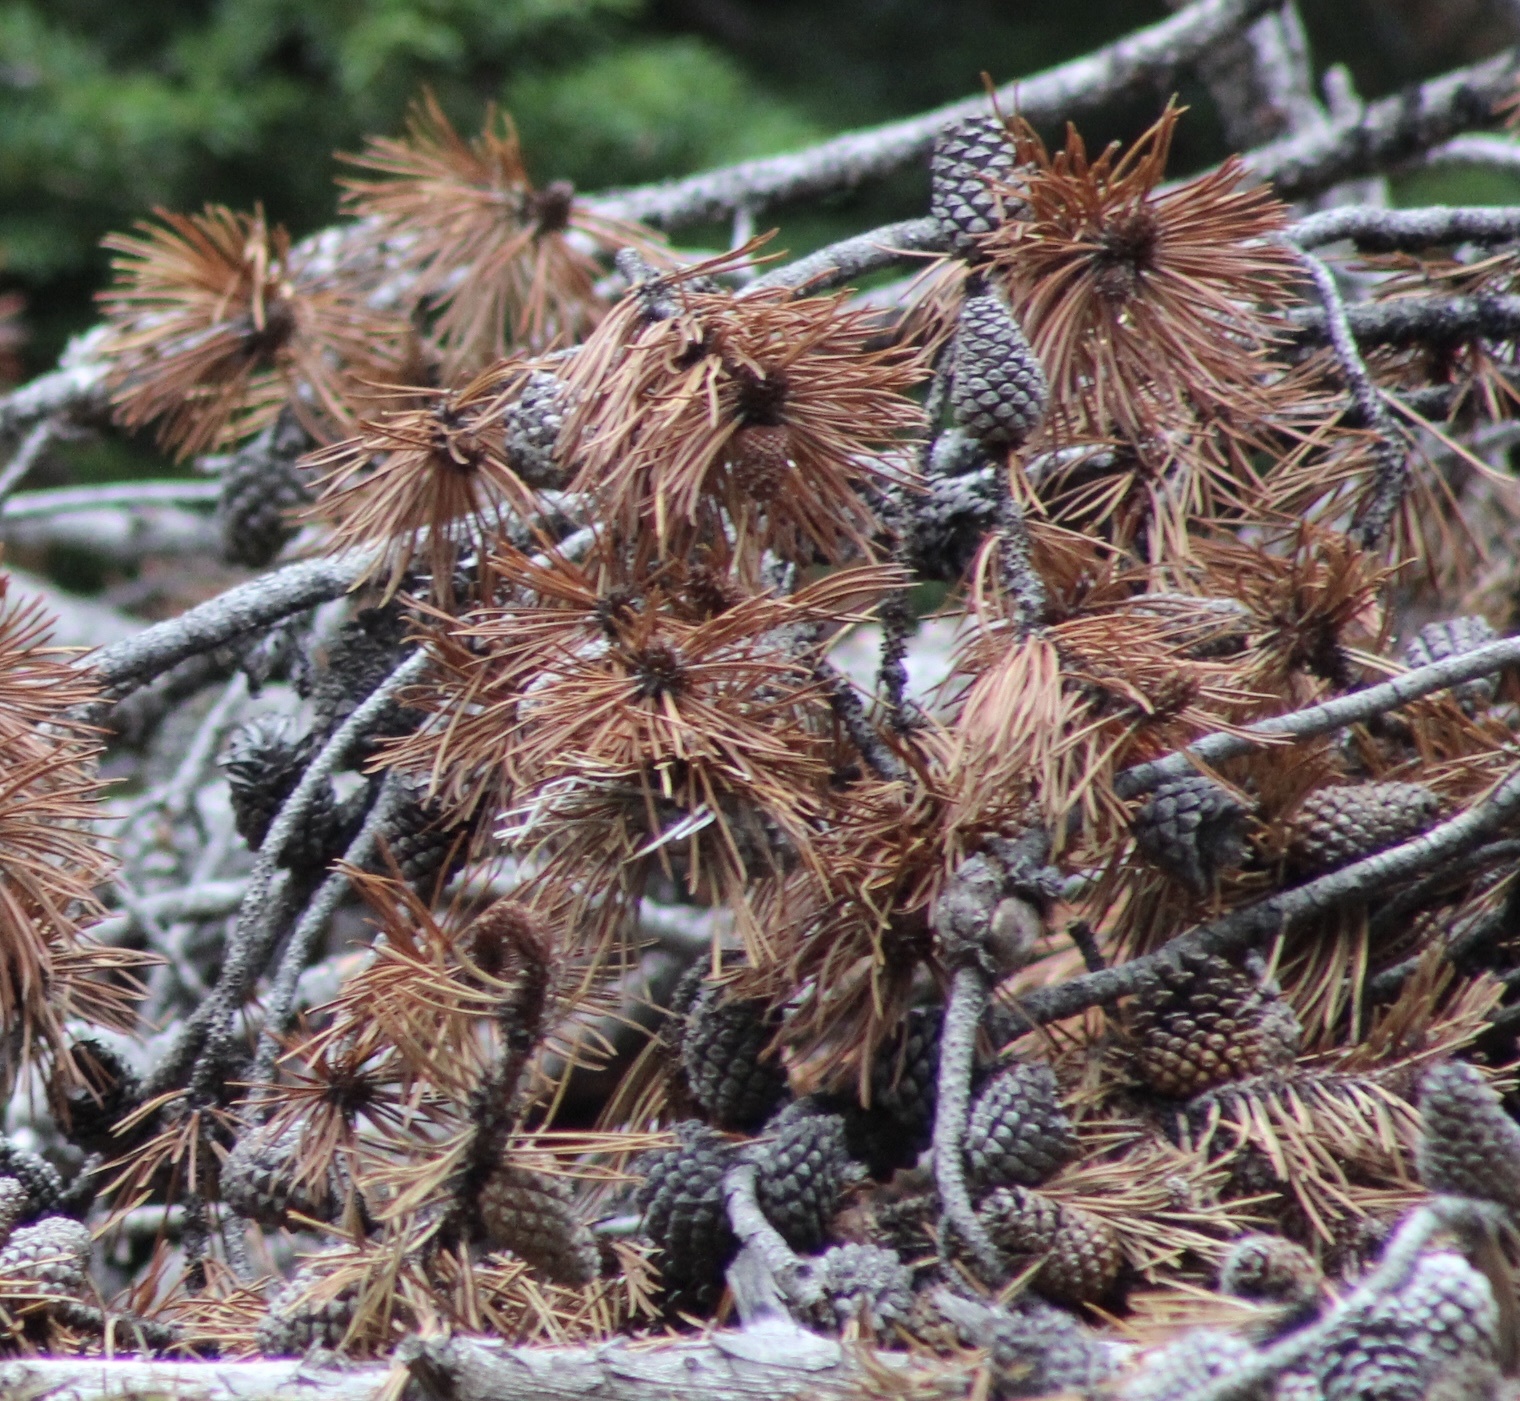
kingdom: Plantae
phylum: Tracheophyta
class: Pinopsida
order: Pinales
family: Pinaceae
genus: Pinus
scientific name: Pinus contorta
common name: Lodgepole pine
